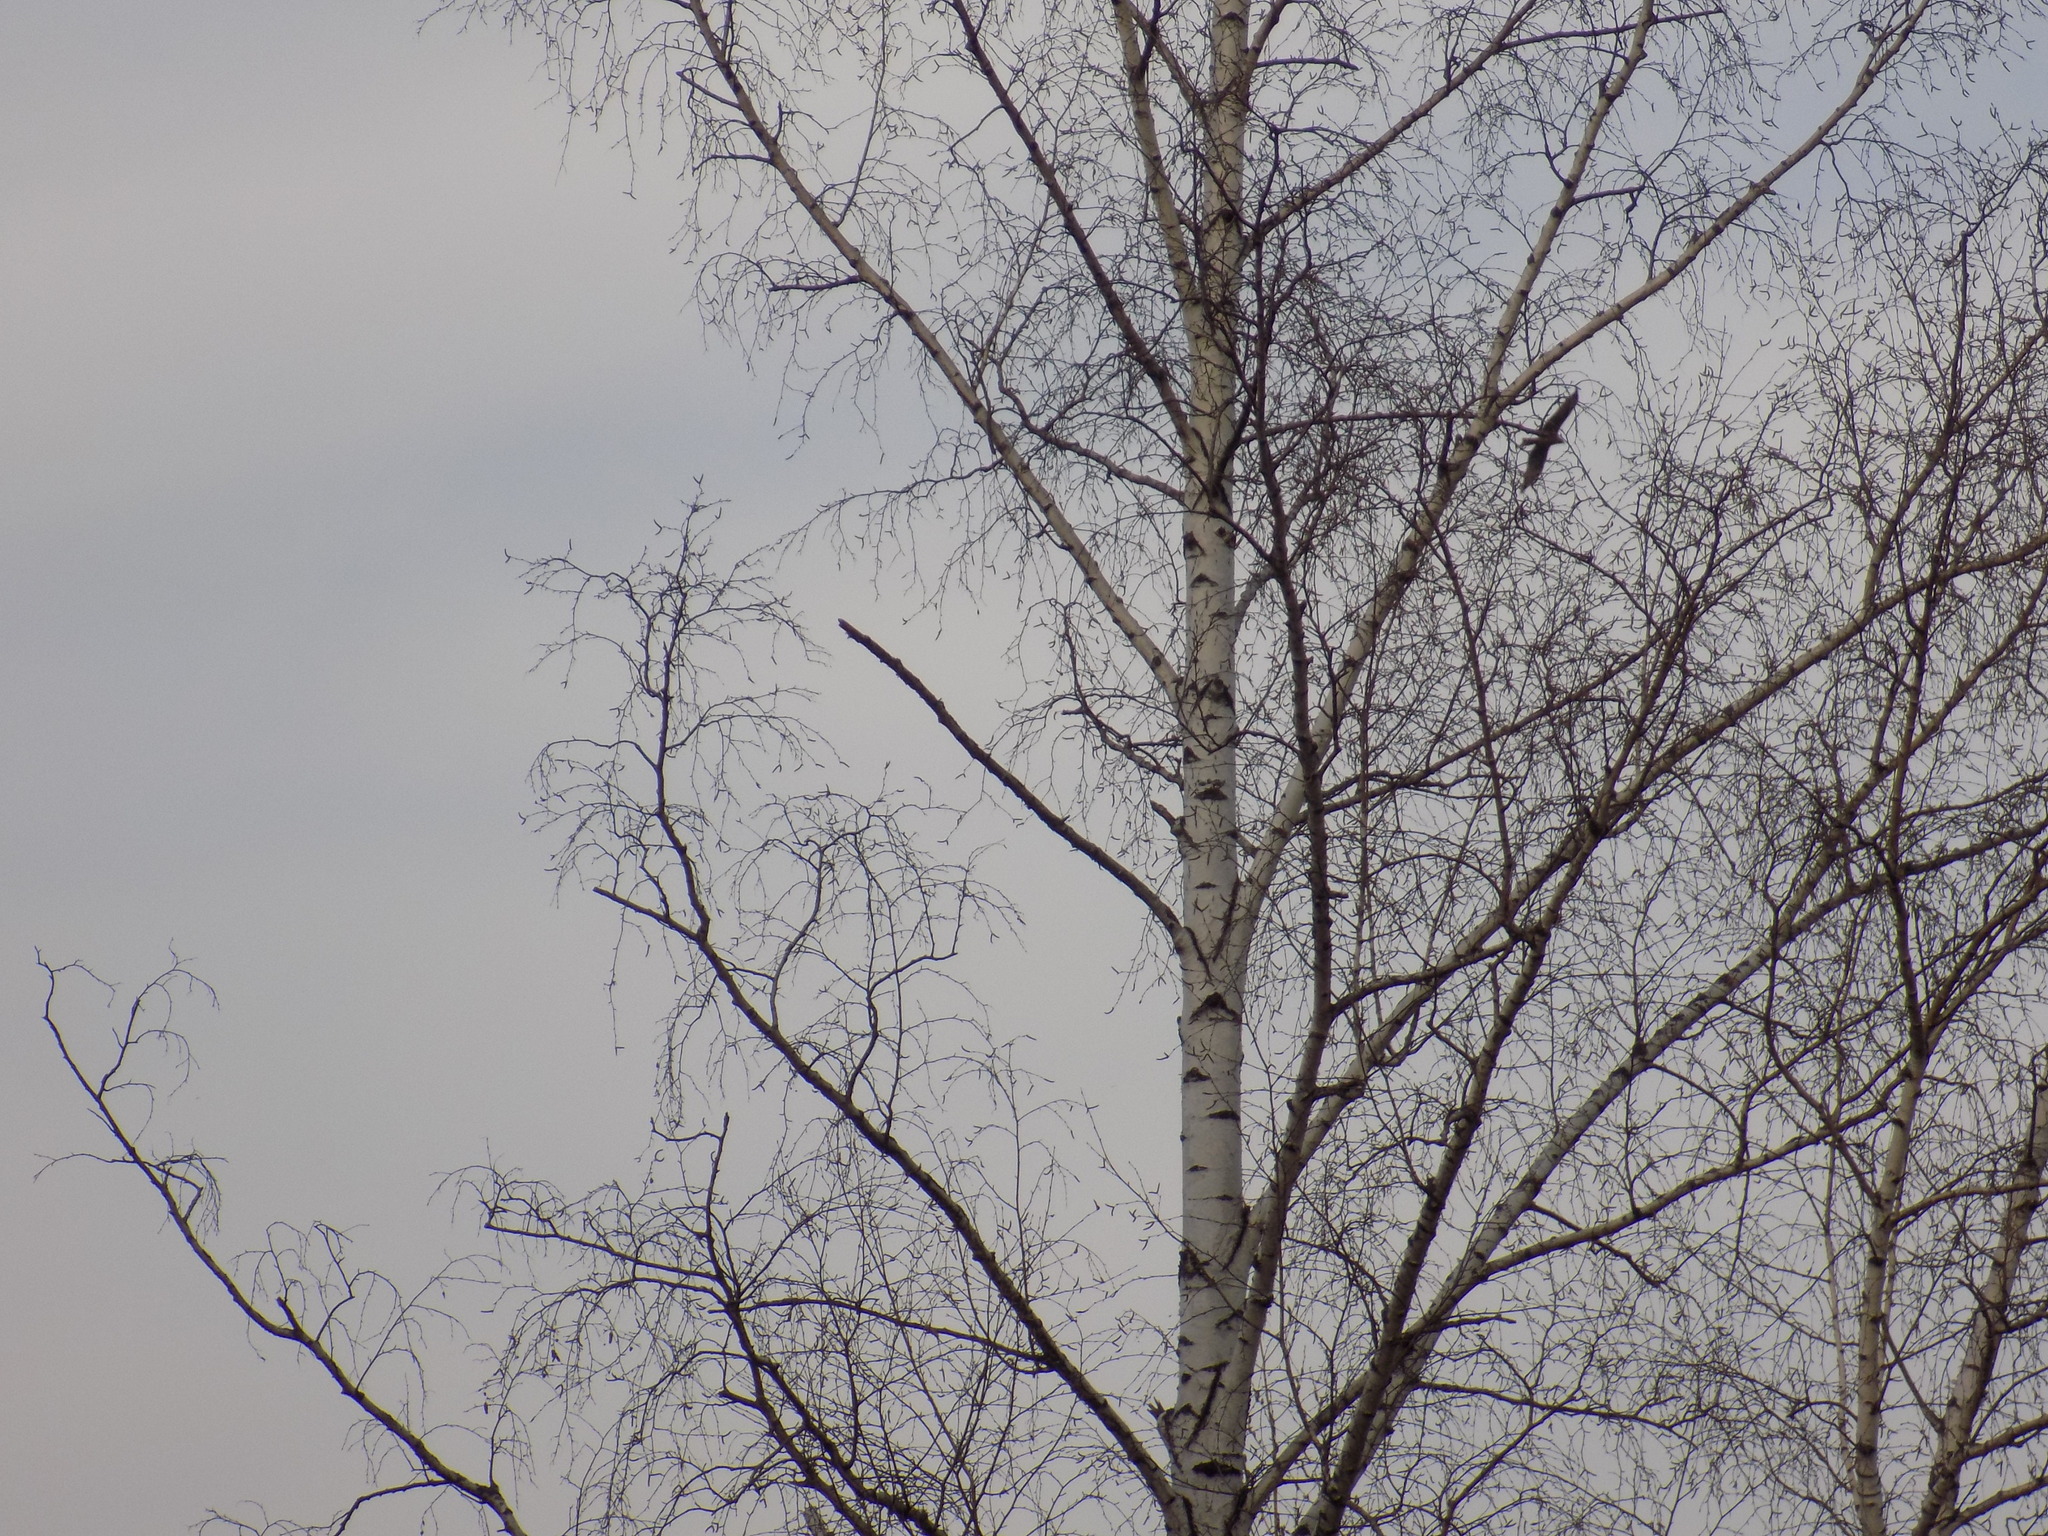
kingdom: Animalia
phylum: Chordata
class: Aves
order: Accipitriformes
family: Accipitridae
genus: Milvus
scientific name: Milvus migrans
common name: Black kite
